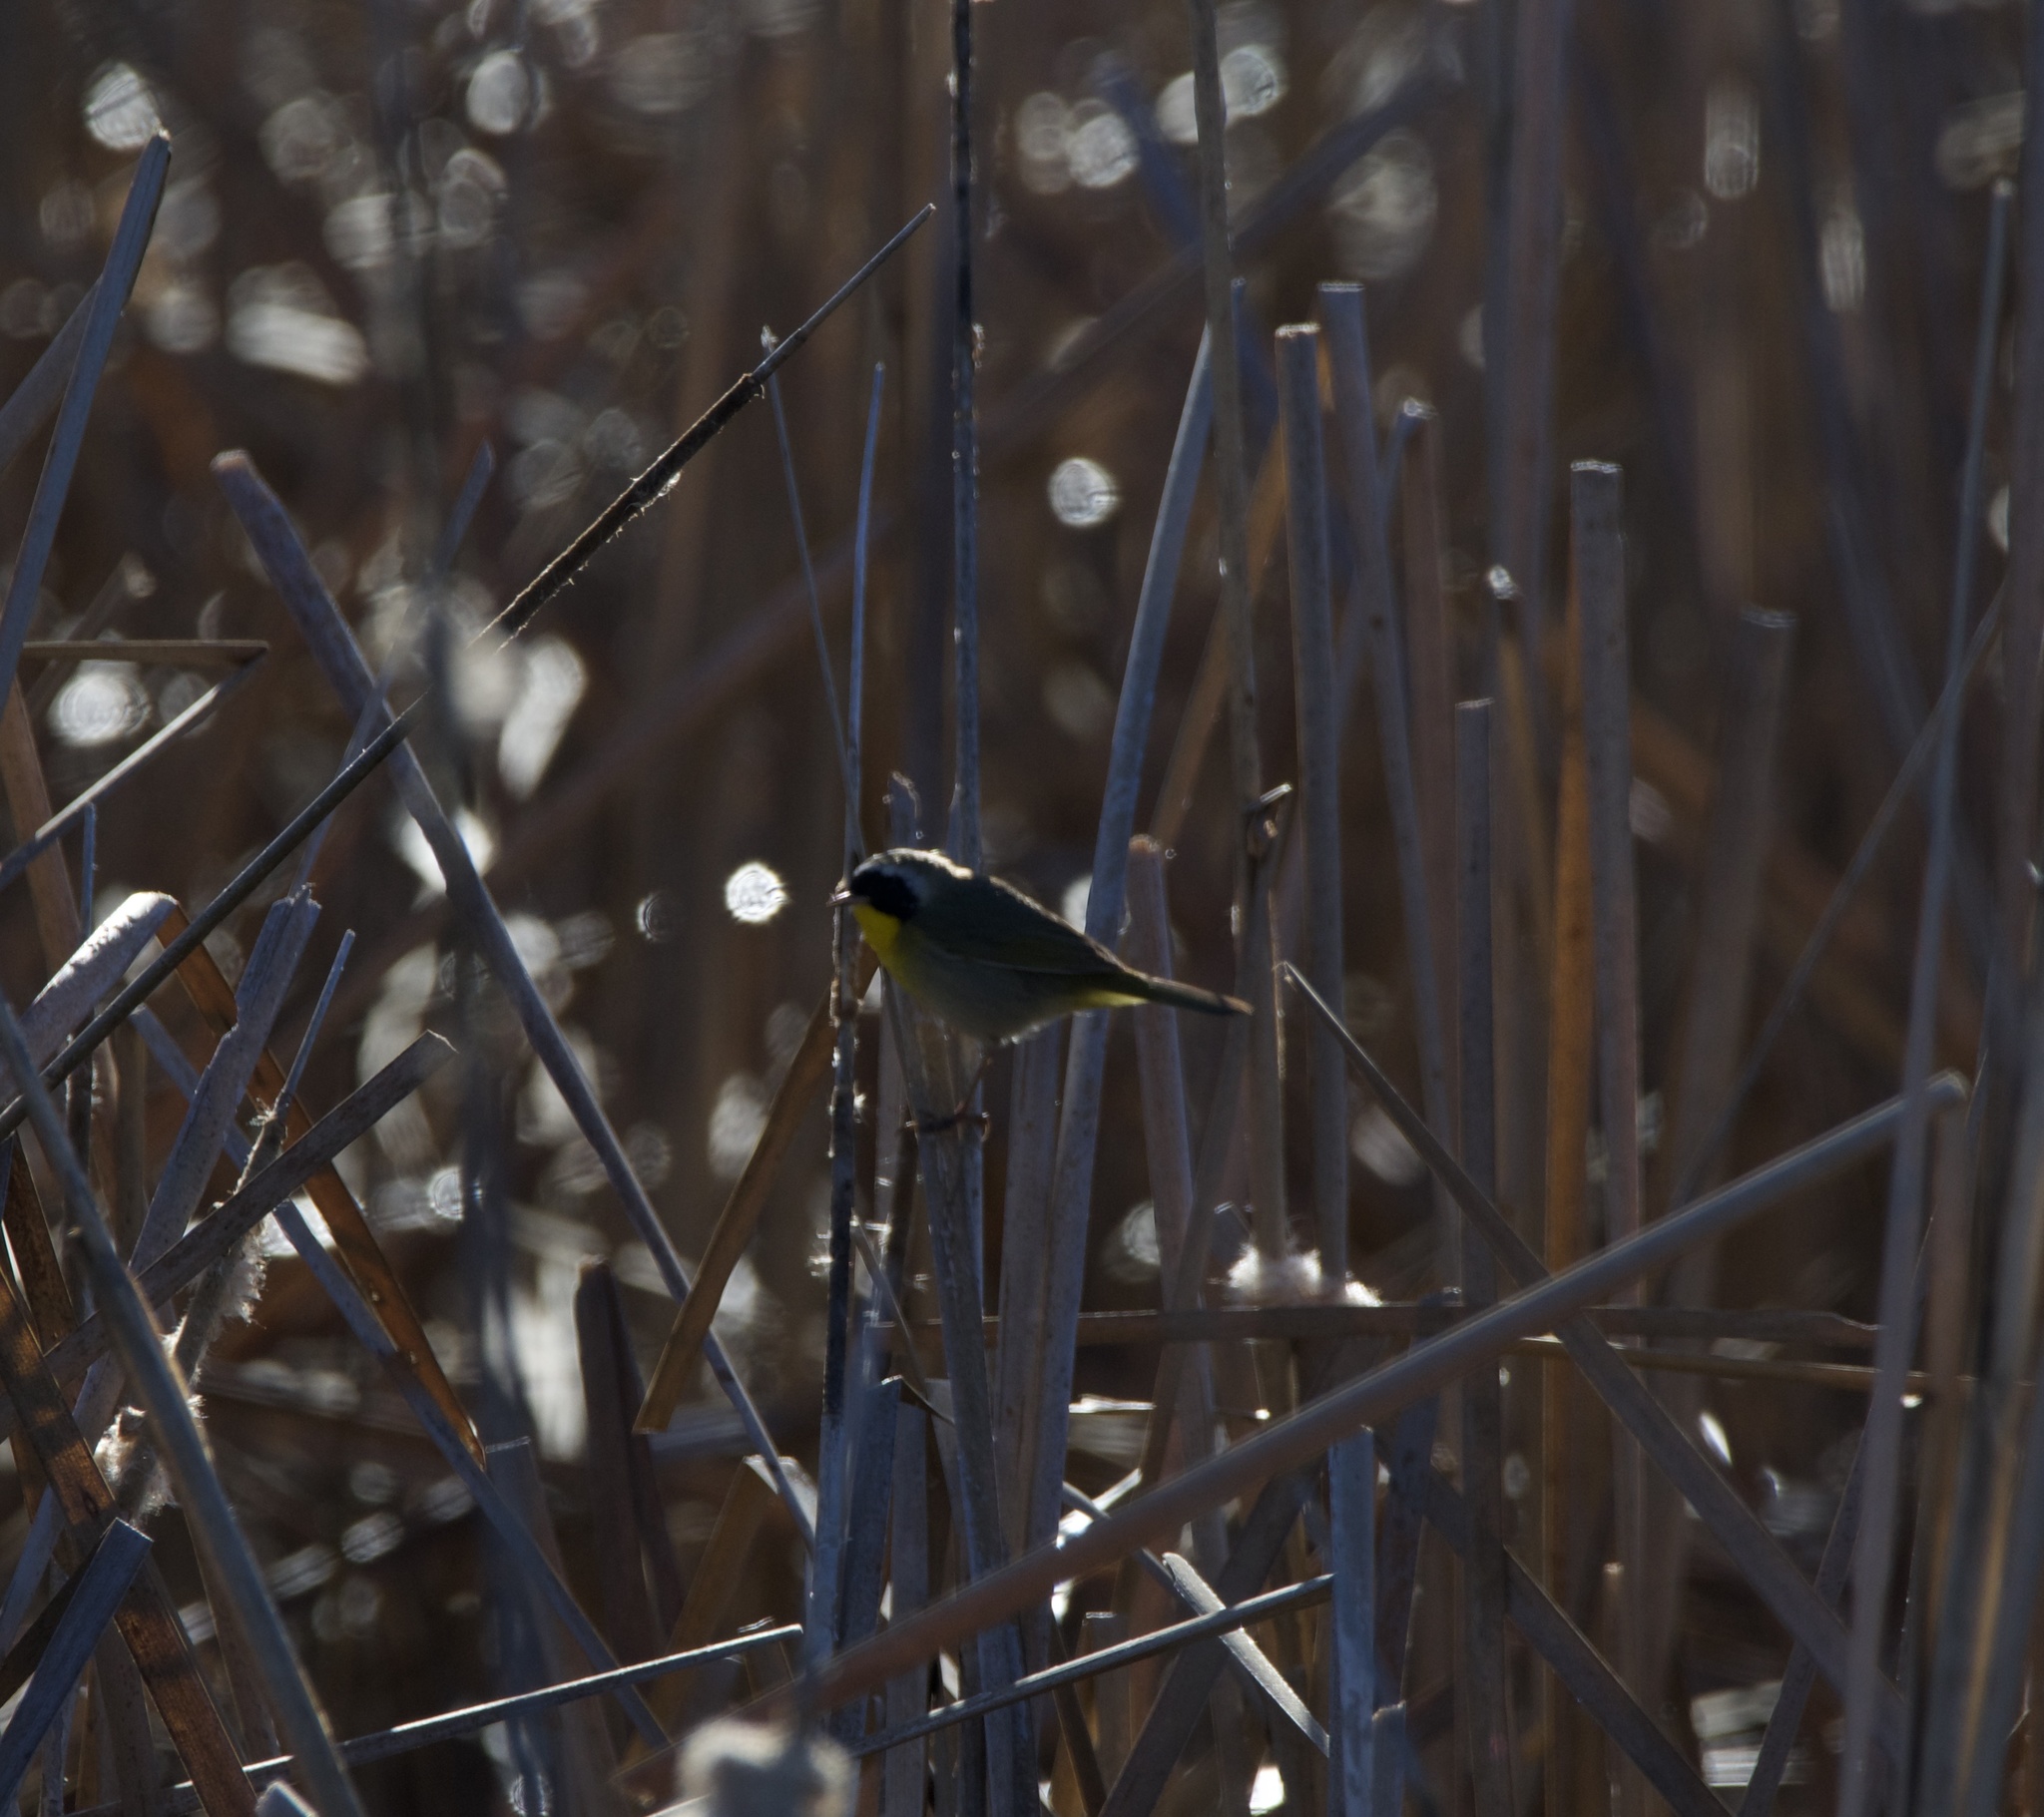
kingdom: Animalia
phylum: Chordata
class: Aves
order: Passeriformes
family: Parulidae
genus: Geothlypis
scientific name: Geothlypis trichas
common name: Common yellowthroat
